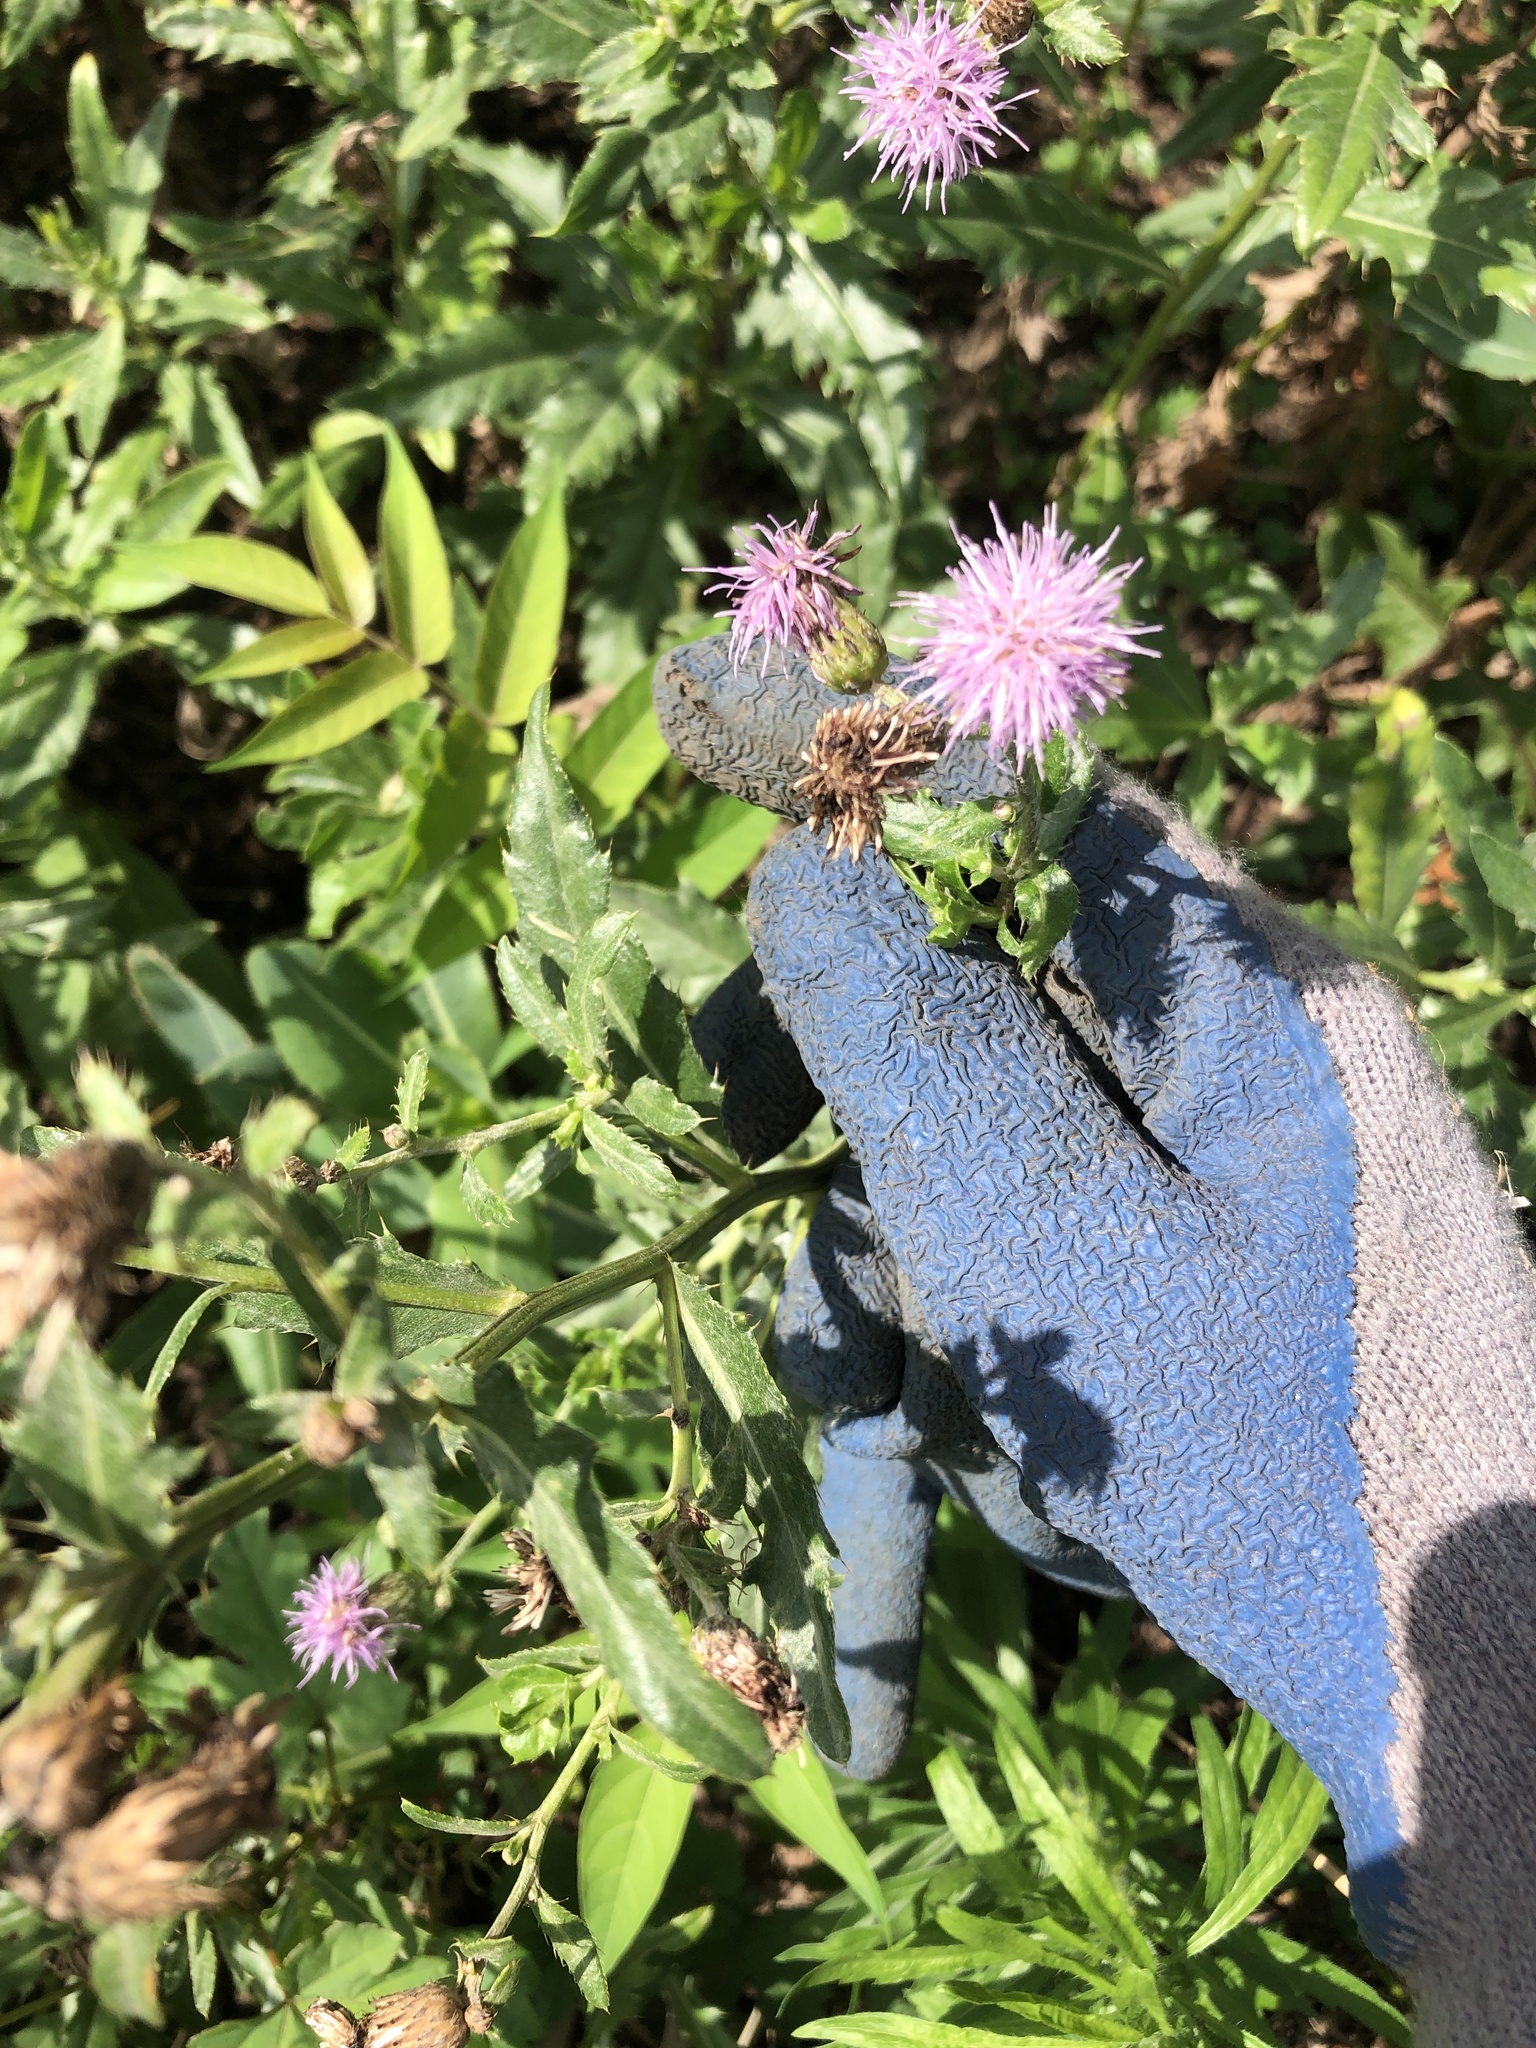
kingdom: Plantae
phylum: Tracheophyta
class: Magnoliopsida
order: Asterales
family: Asteraceae
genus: Cirsium
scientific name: Cirsium arvense
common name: Creeping thistle
